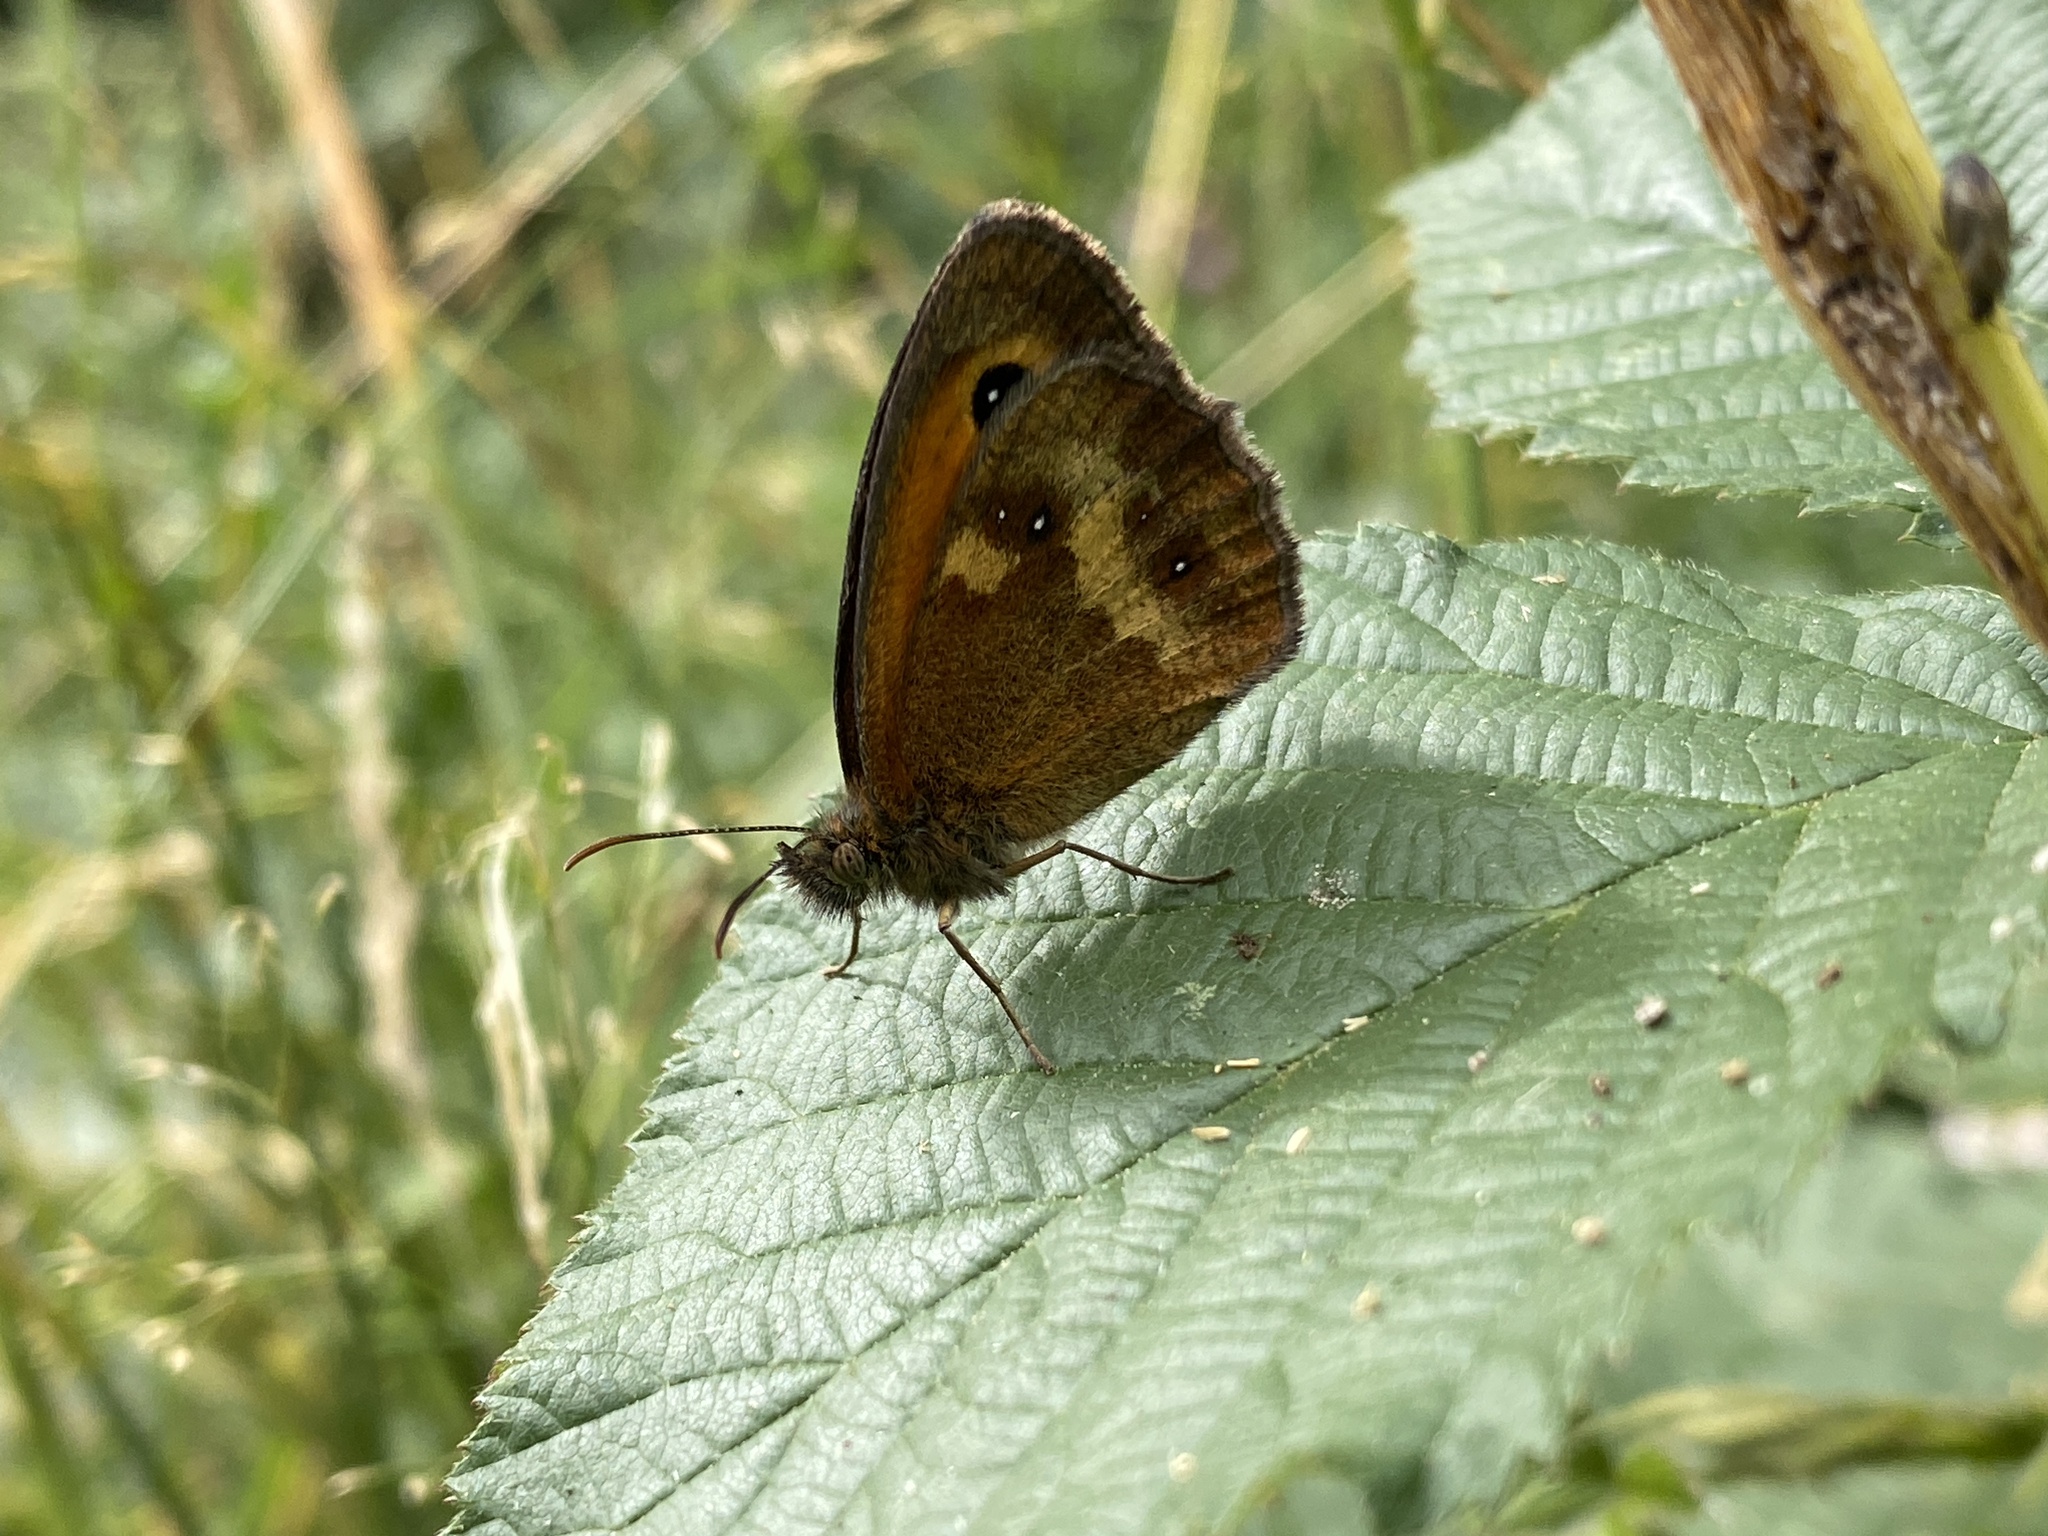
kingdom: Animalia
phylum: Arthropoda
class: Insecta
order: Lepidoptera
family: Nymphalidae
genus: Pyronia
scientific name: Pyronia tithonus
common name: Gatekeeper
